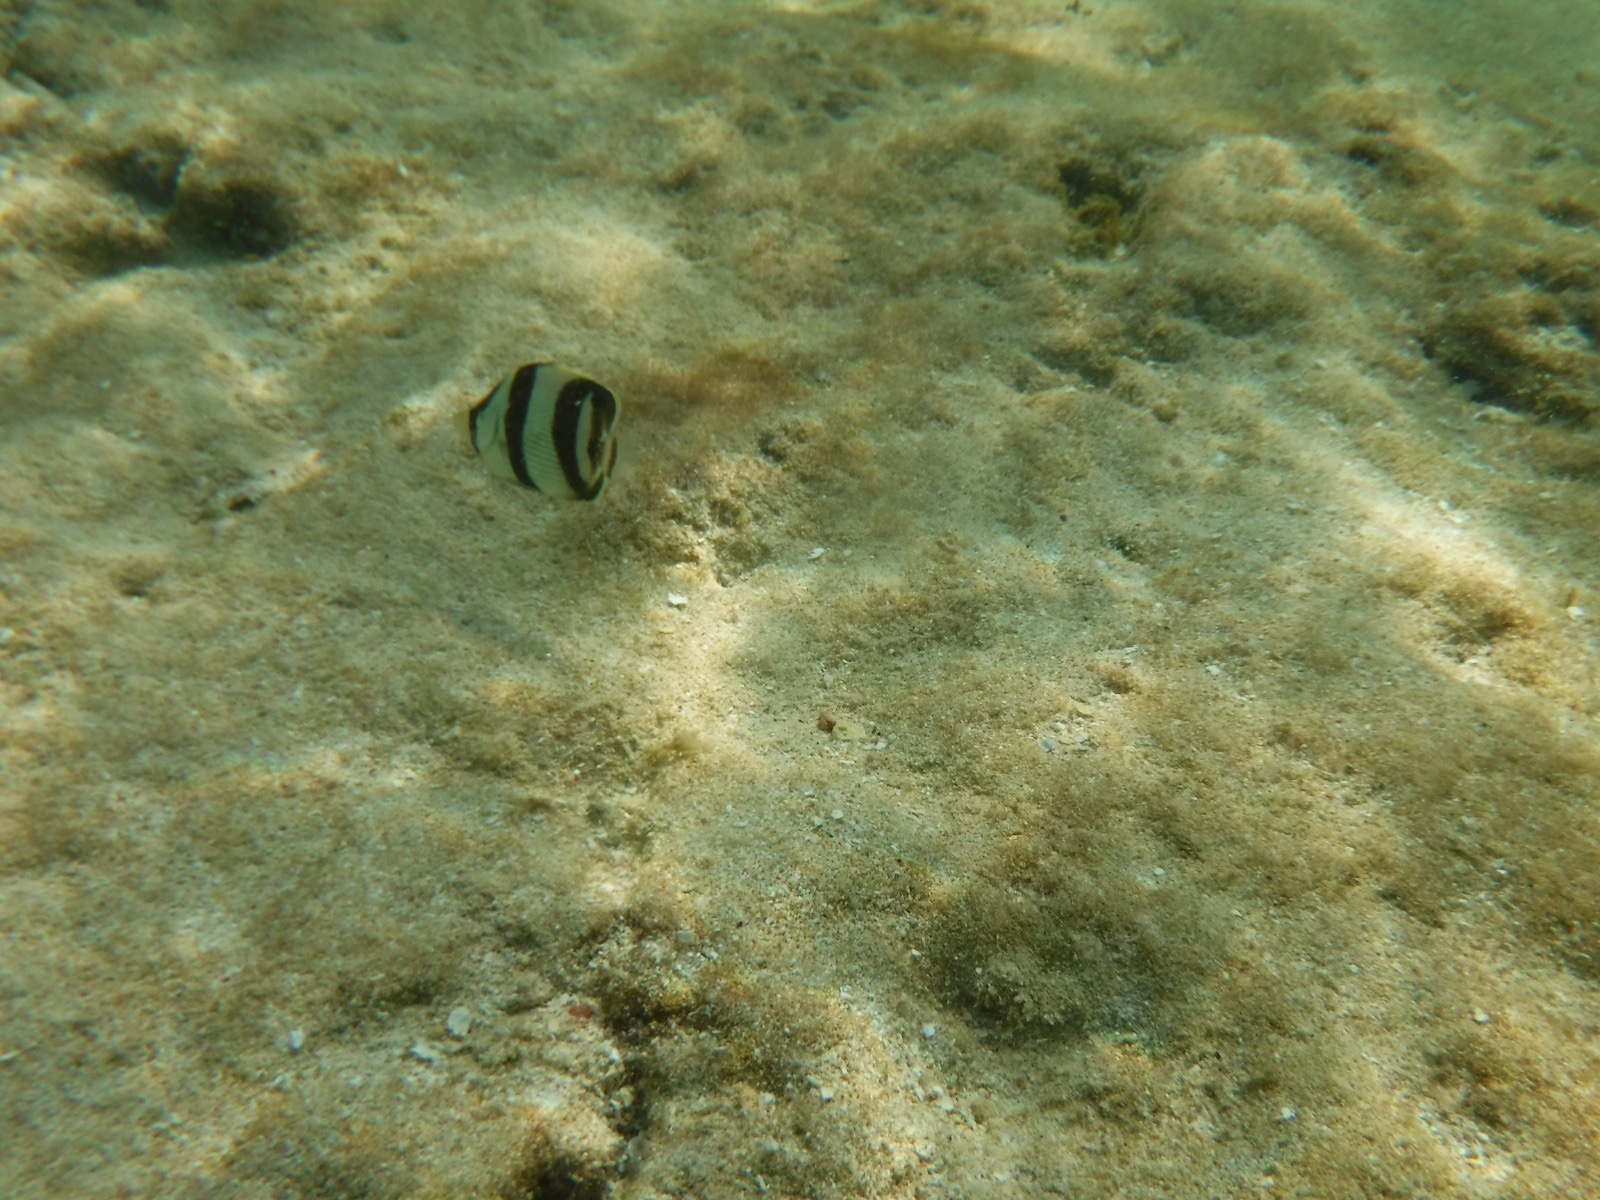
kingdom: Animalia
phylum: Chordata
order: Perciformes
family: Chaetodontidae
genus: Chaetodon
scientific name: Chaetodon striatus
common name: Banded butterflyfish
